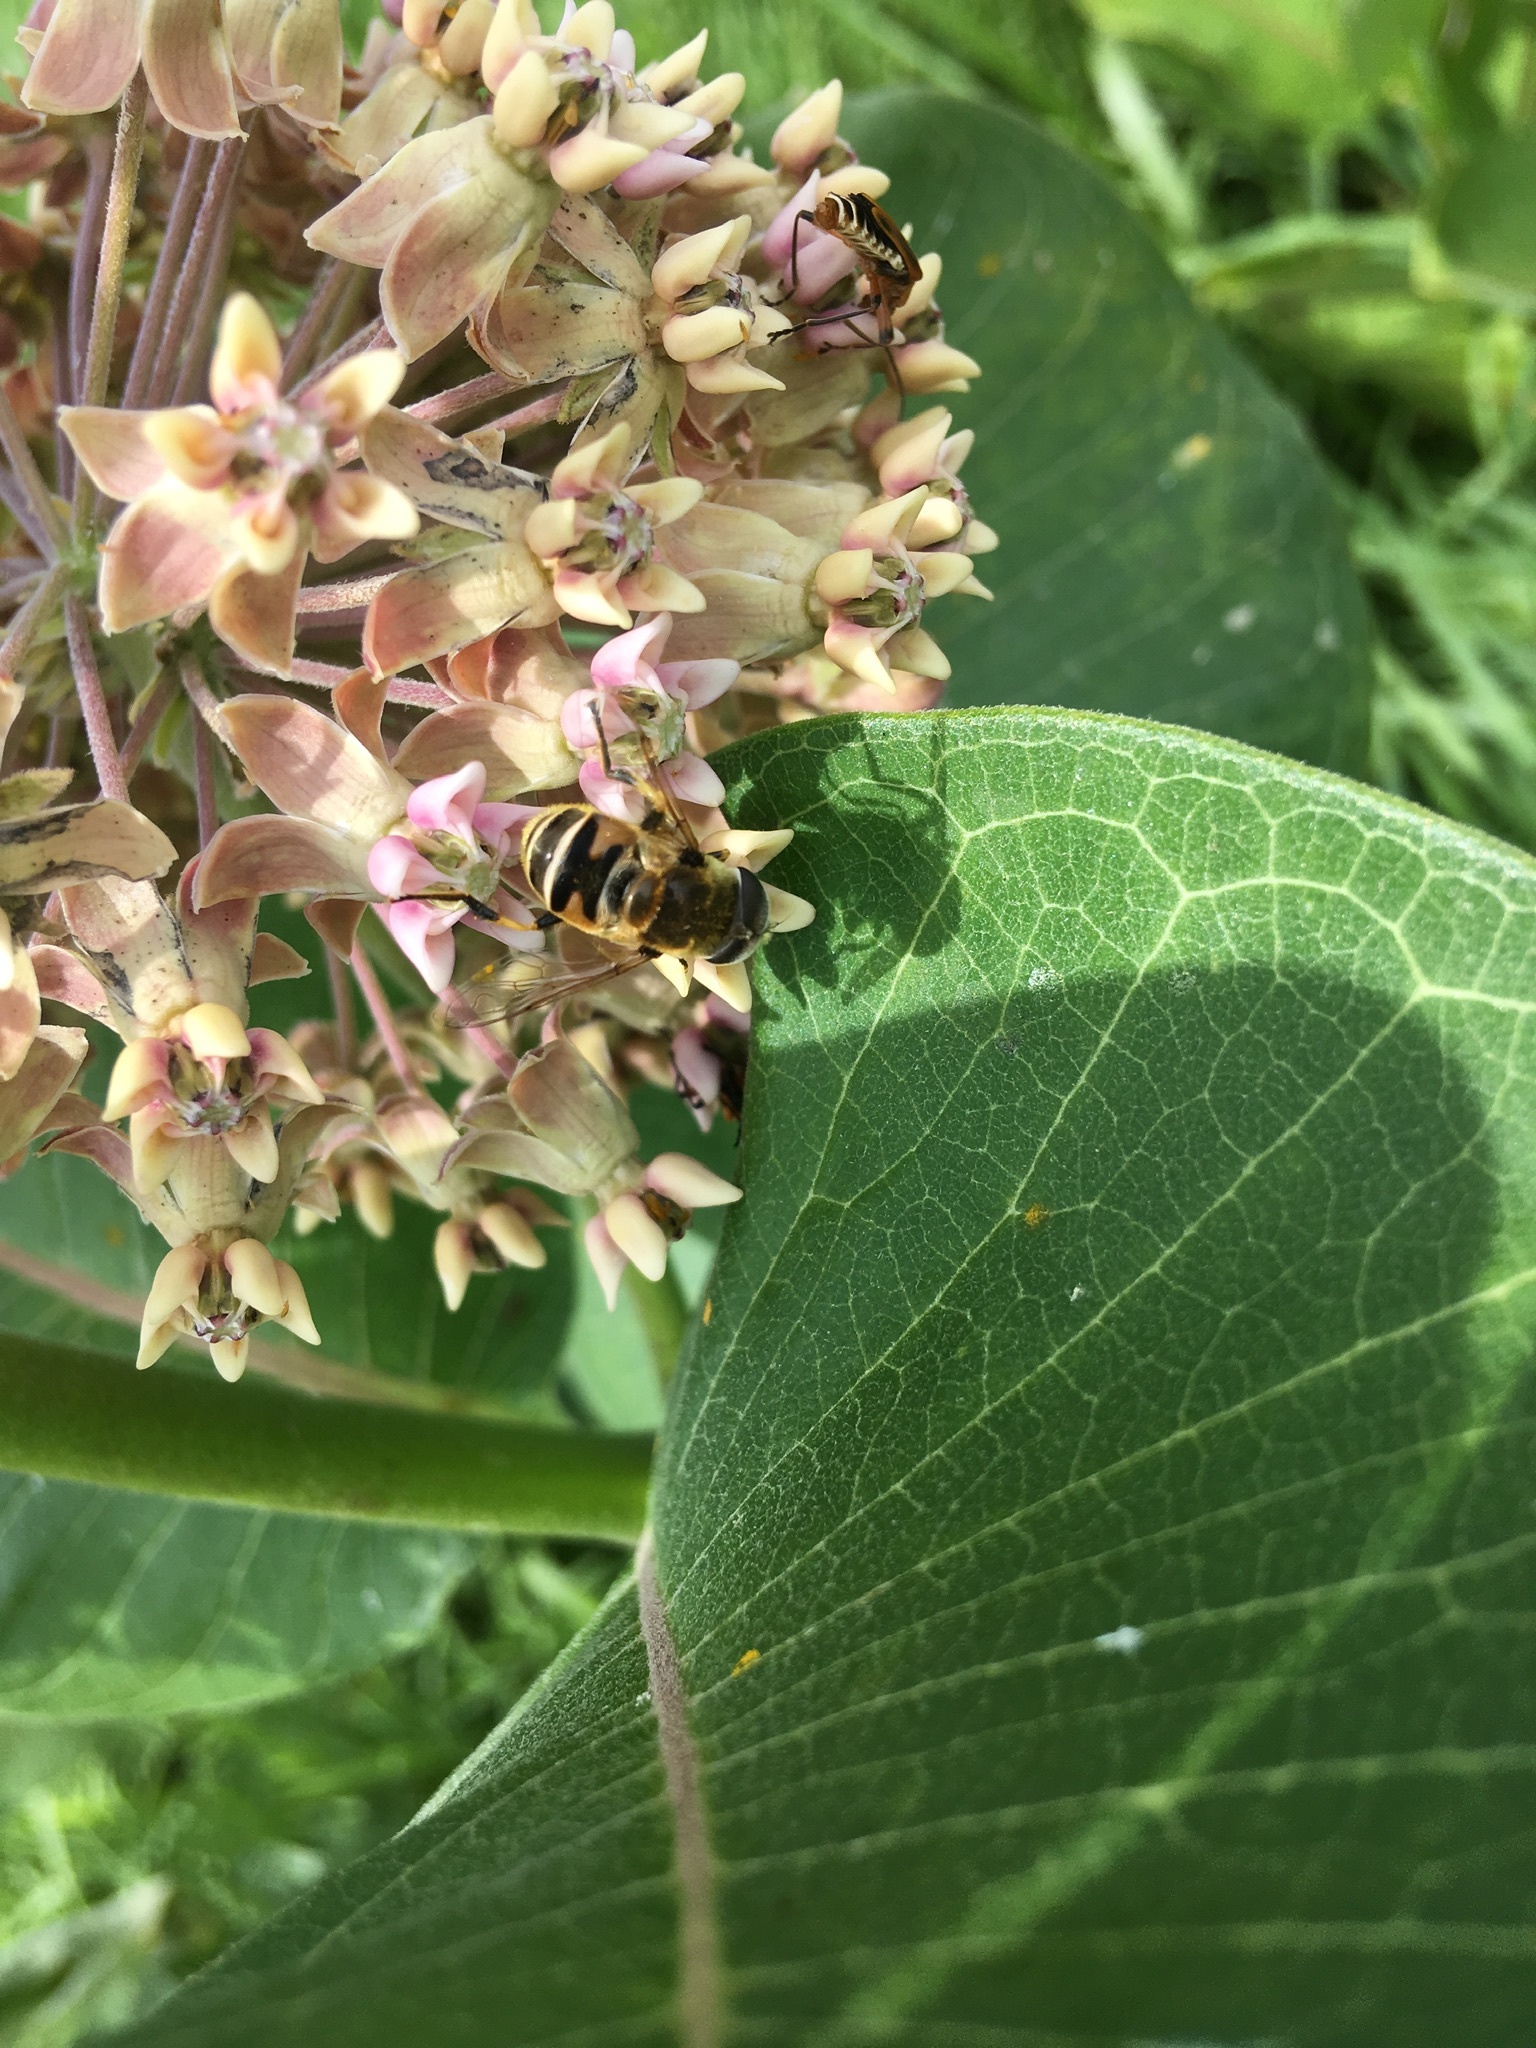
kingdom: Animalia
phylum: Arthropoda
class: Insecta
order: Diptera
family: Syrphidae
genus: Eristalis
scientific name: Eristalis stipator
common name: Yellow-shouldered drone fly
